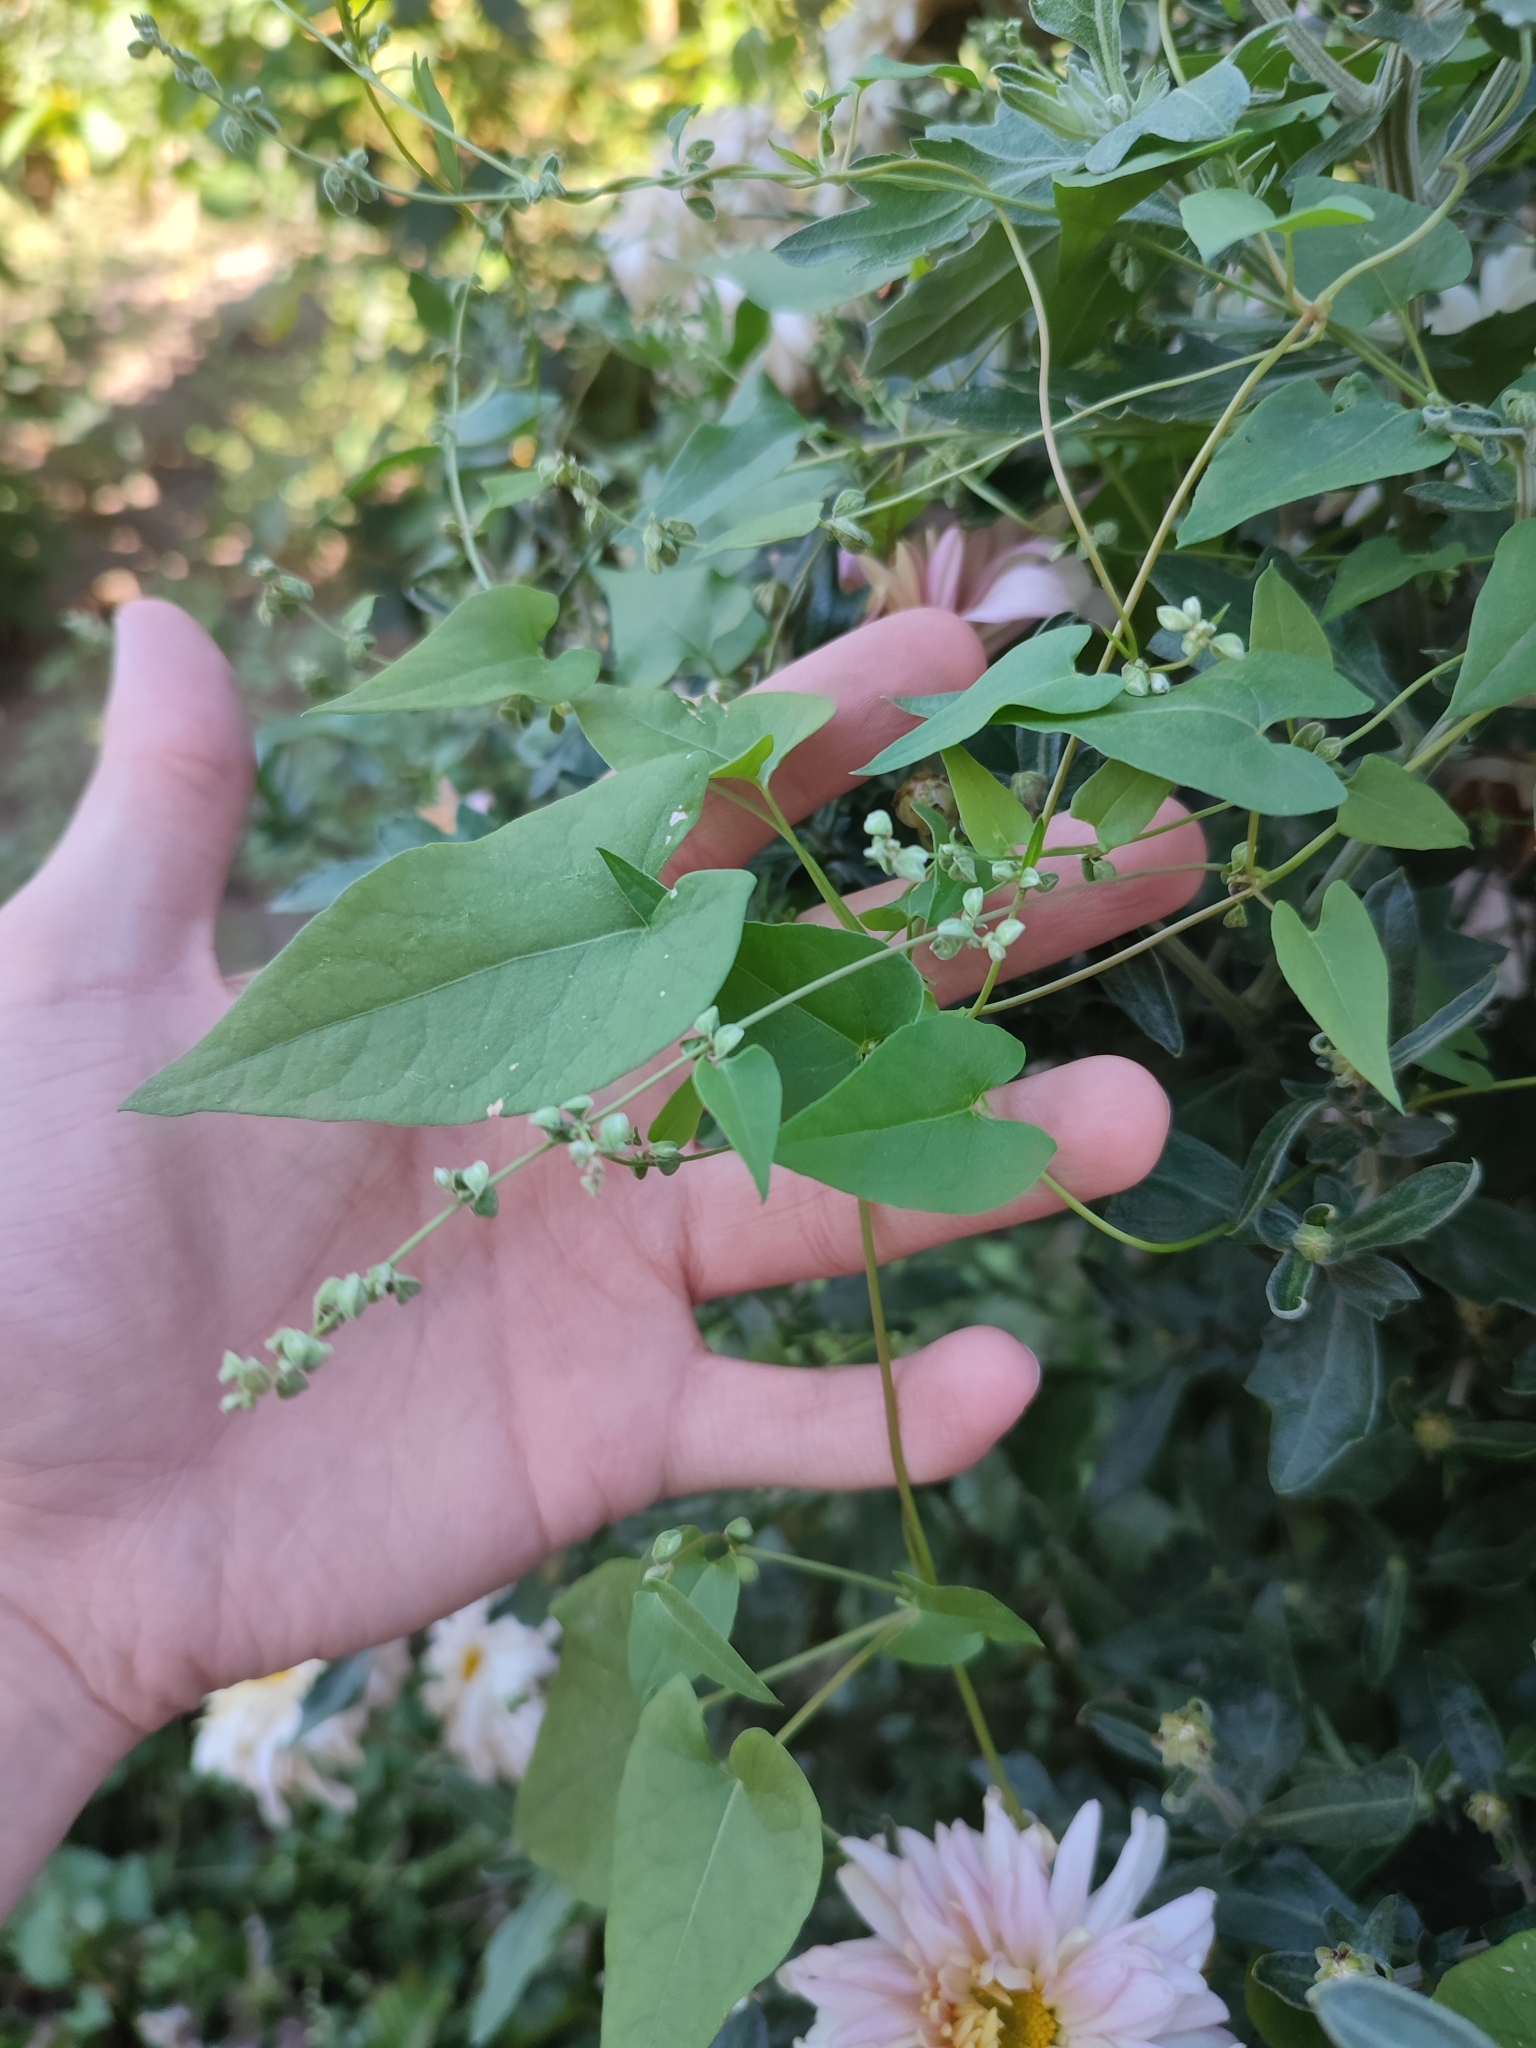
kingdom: Plantae
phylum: Tracheophyta
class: Magnoliopsida
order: Caryophyllales
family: Polygonaceae
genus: Fallopia
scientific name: Fallopia convolvulus
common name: Black bindweed
